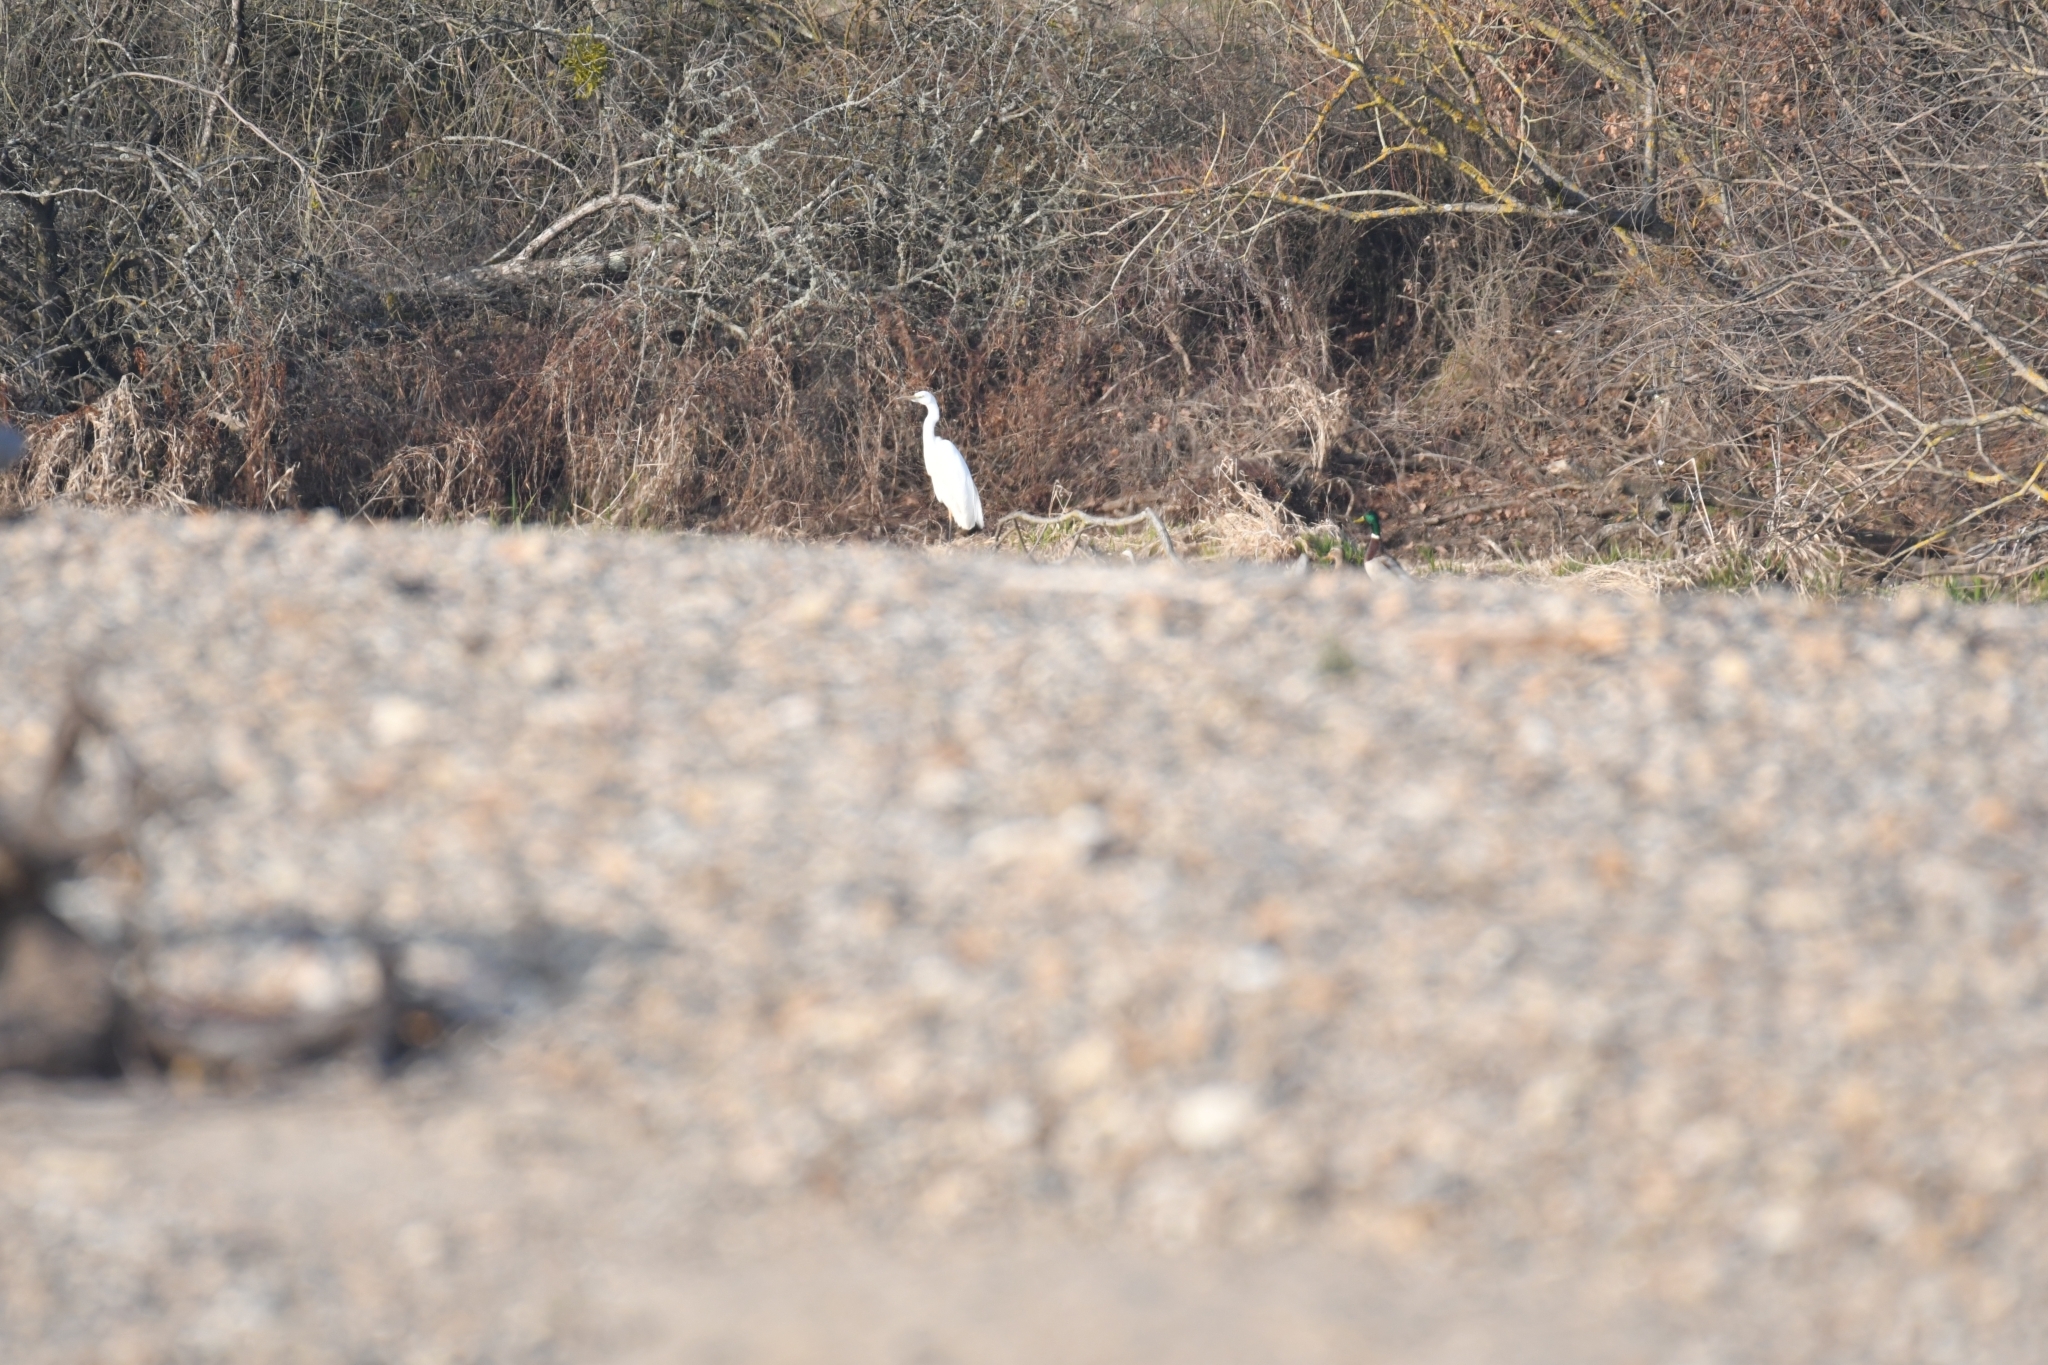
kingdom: Animalia
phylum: Chordata
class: Aves
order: Pelecaniformes
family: Ardeidae
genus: Ardea
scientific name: Ardea alba
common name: Great egret
